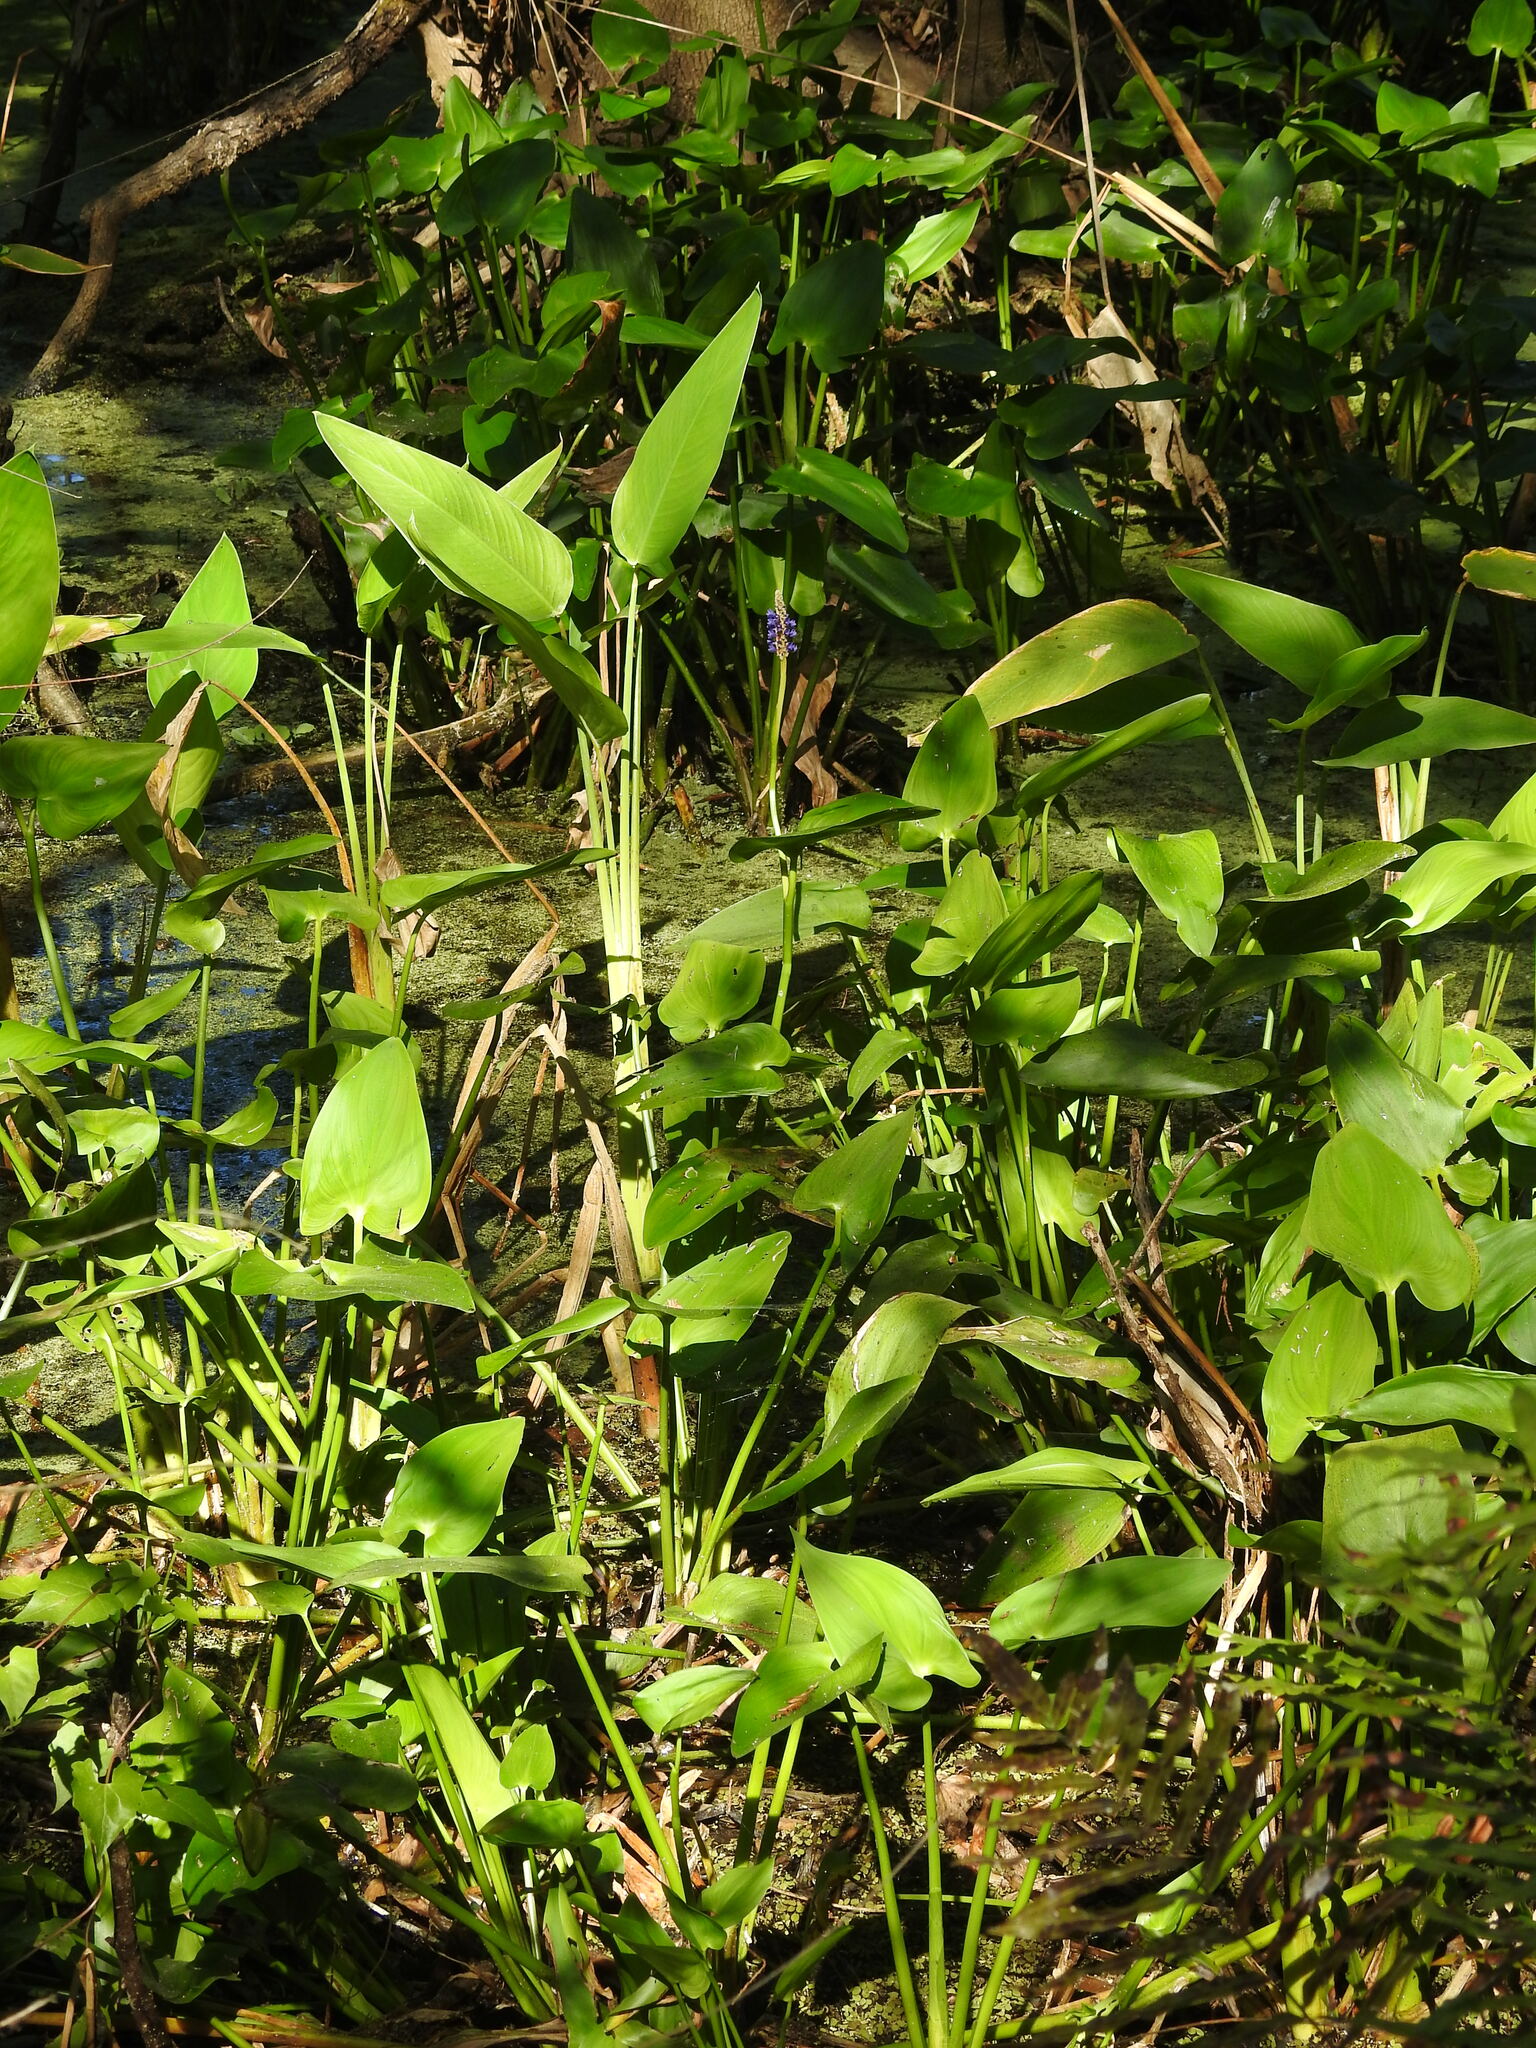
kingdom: Plantae
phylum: Tracheophyta
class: Liliopsida
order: Commelinales
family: Pontederiaceae
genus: Pontederia
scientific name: Pontederia cordata
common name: Pickerelweed
